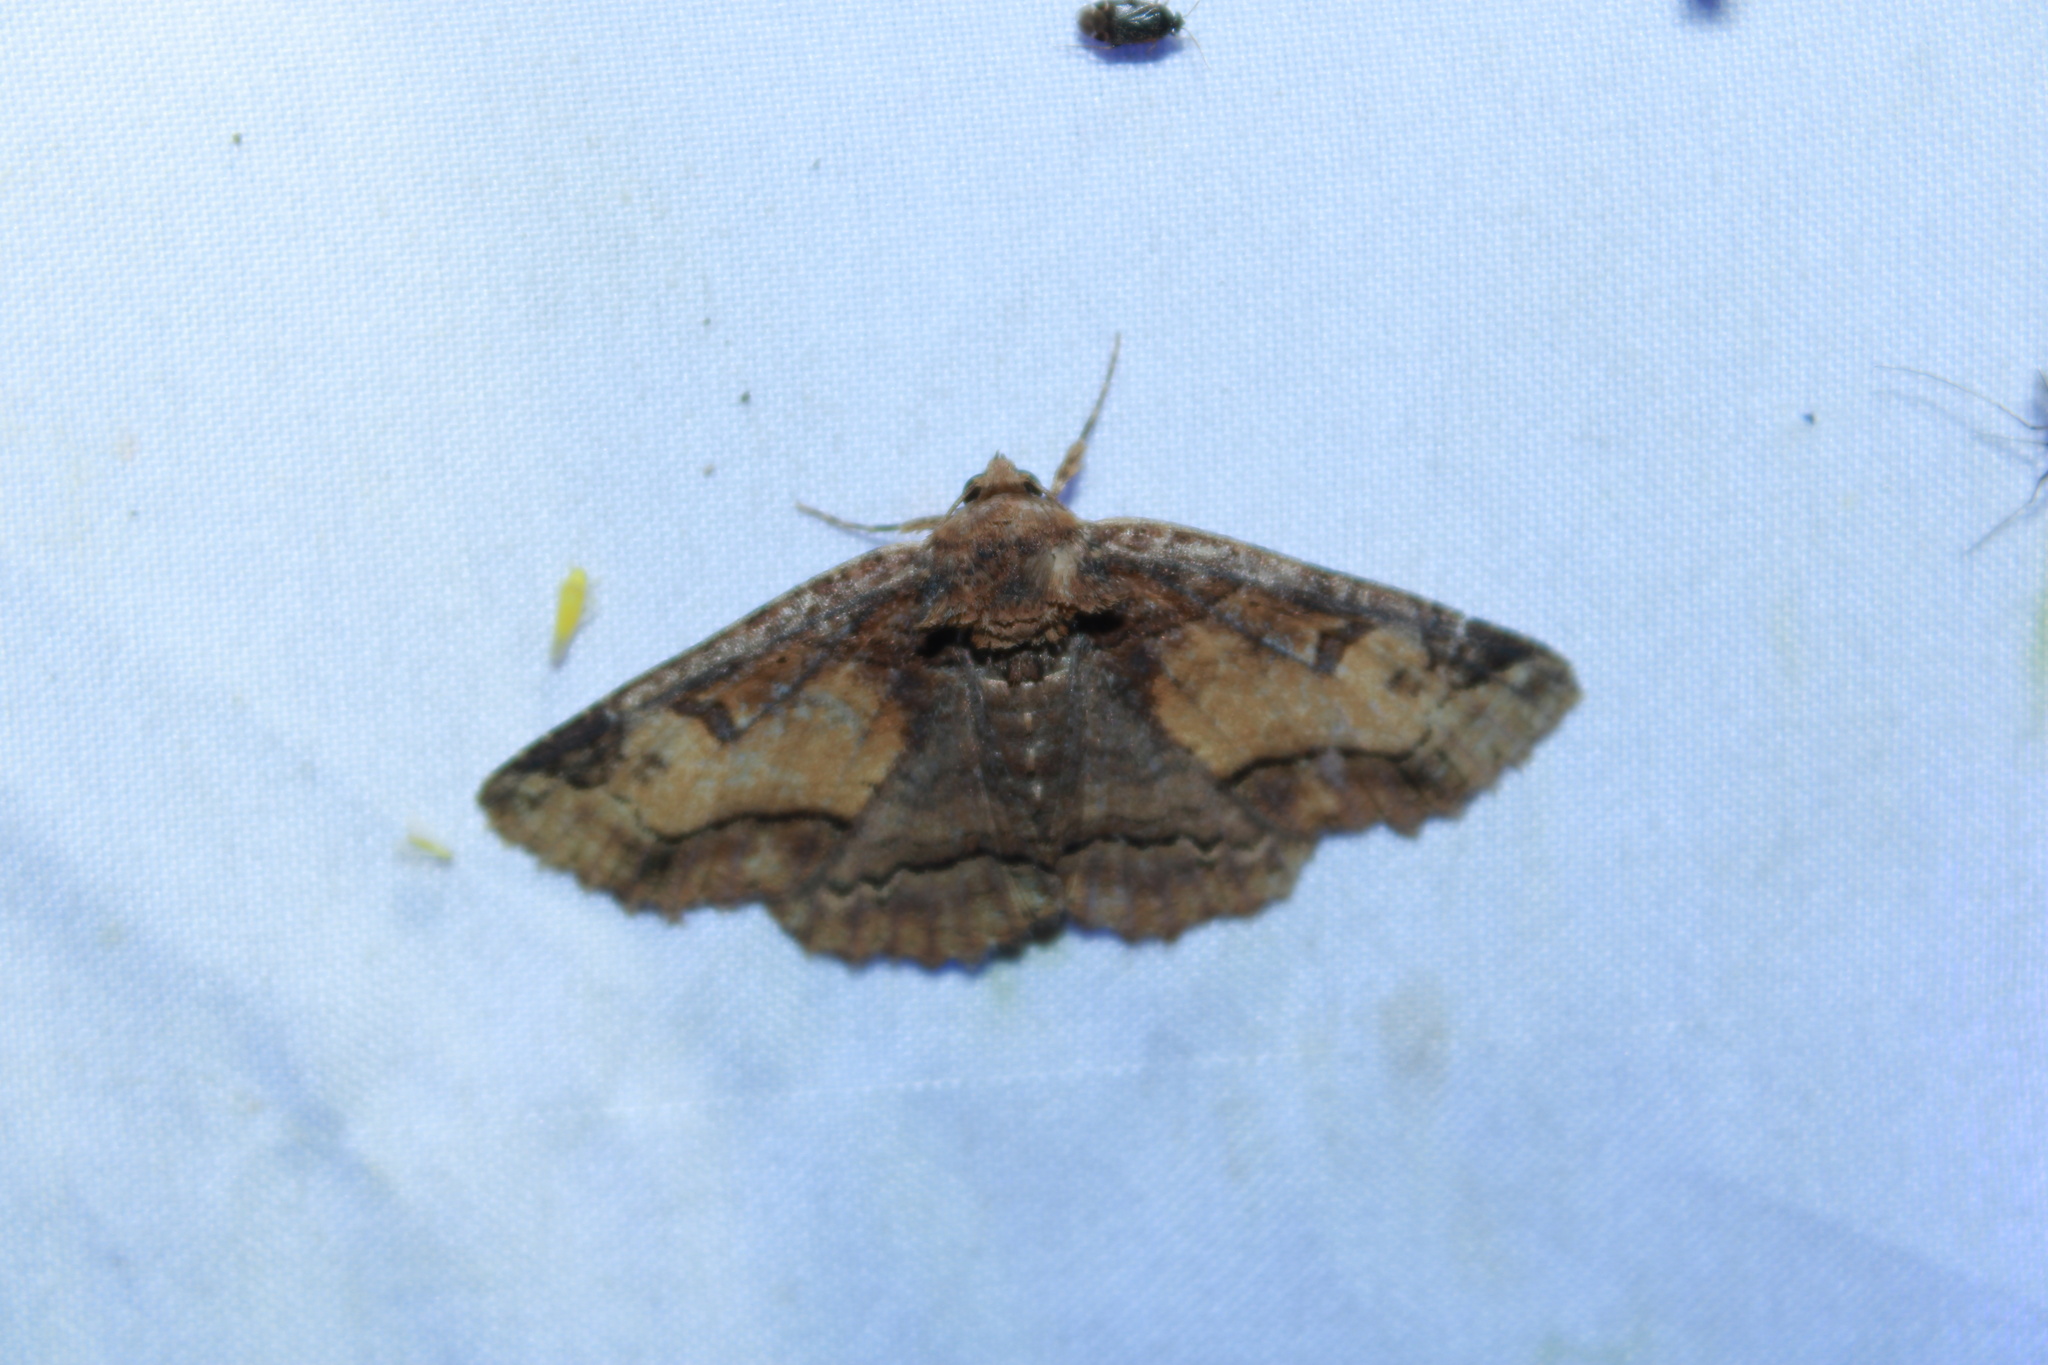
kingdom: Animalia
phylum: Arthropoda
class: Insecta
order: Lepidoptera
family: Erebidae
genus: Zale
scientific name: Zale minerea
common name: Colorful zale moth
